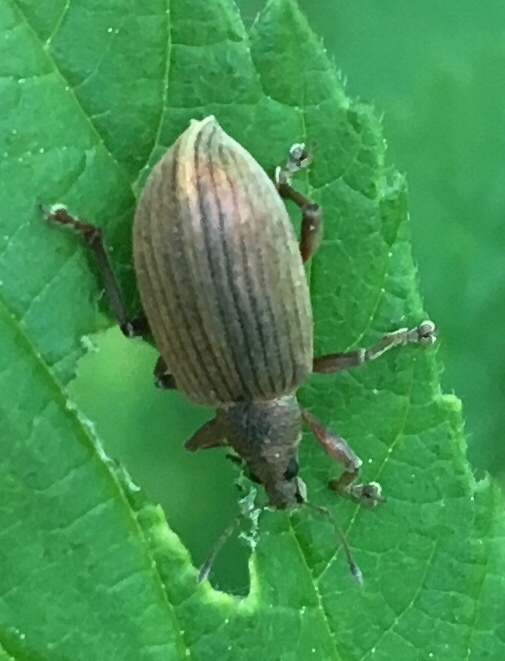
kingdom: Animalia
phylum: Arthropoda
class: Insecta
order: Coleoptera
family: Curculionidae
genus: Polydrusus
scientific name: Polydrusus mollis
